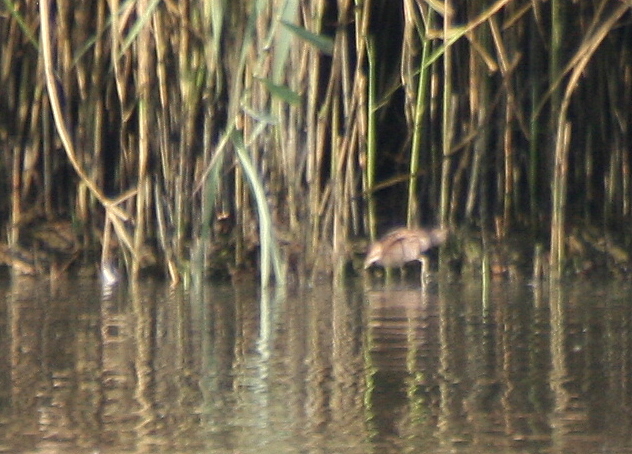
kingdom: Animalia
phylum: Chordata
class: Aves
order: Gruiformes
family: Rallidae
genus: Porzana
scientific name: Porzana parva
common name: Little crake
